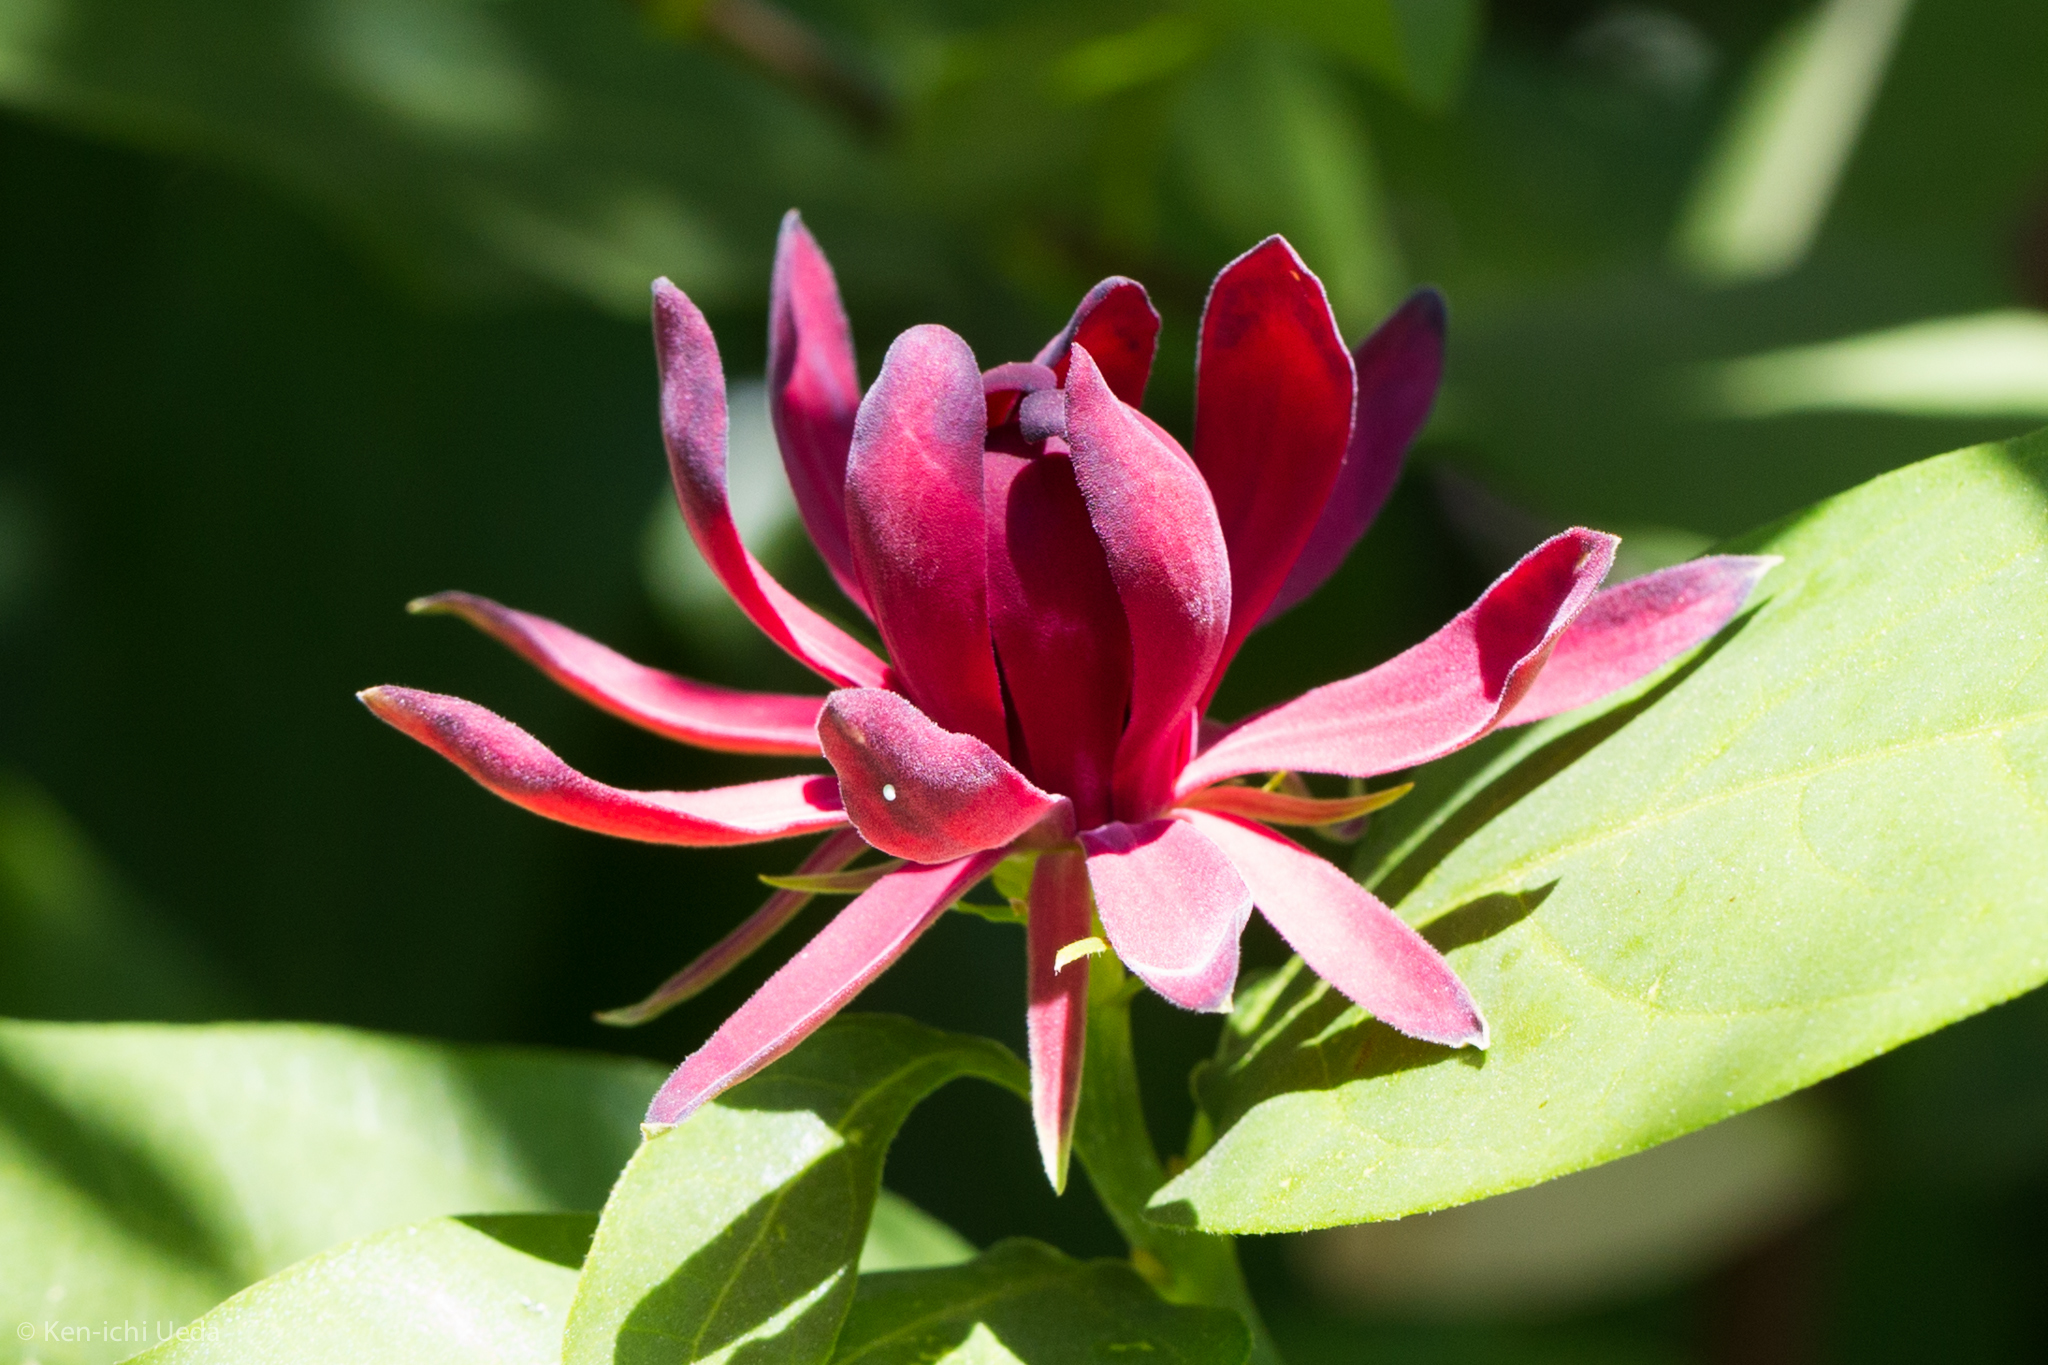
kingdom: Plantae
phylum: Tracheophyta
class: Magnoliopsida
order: Laurales
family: Calycanthaceae
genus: Calycanthus
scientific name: Calycanthus occidentalis
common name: California spicebush
